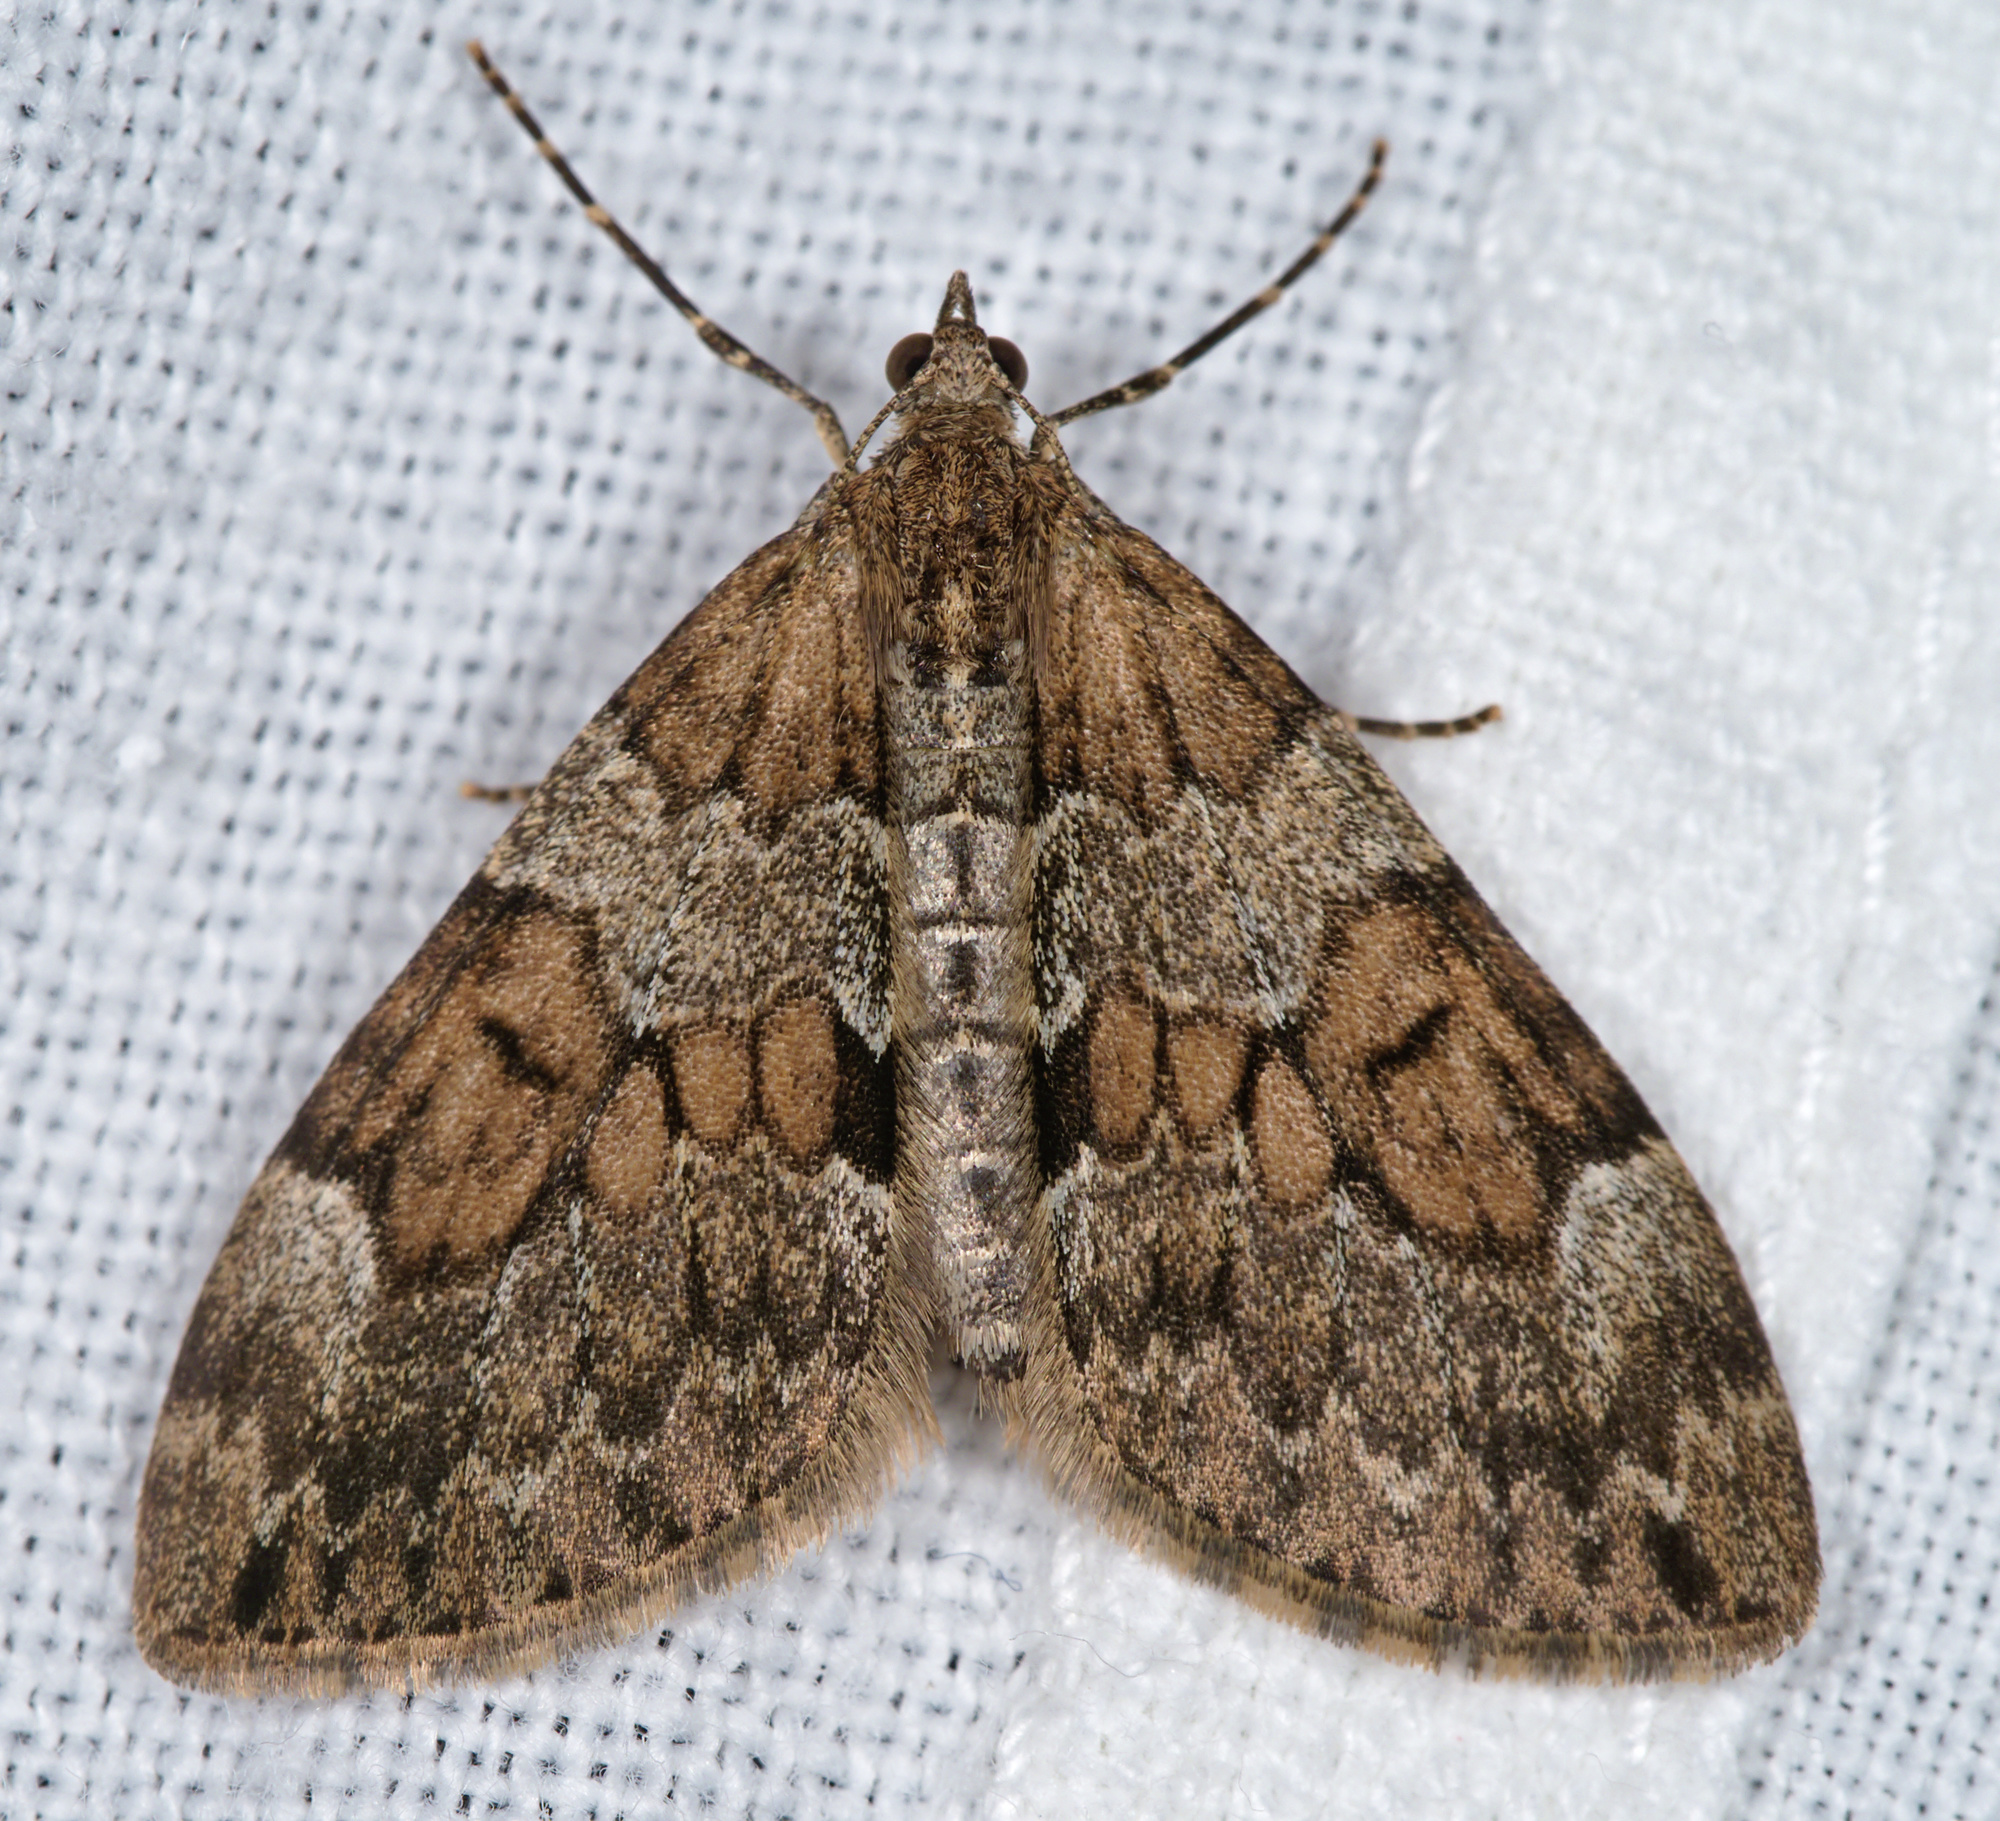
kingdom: Animalia
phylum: Arthropoda
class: Insecta
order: Lepidoptera
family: Geometridae
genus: Thera
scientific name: Thera obeliscata
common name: Grey pine carpet
